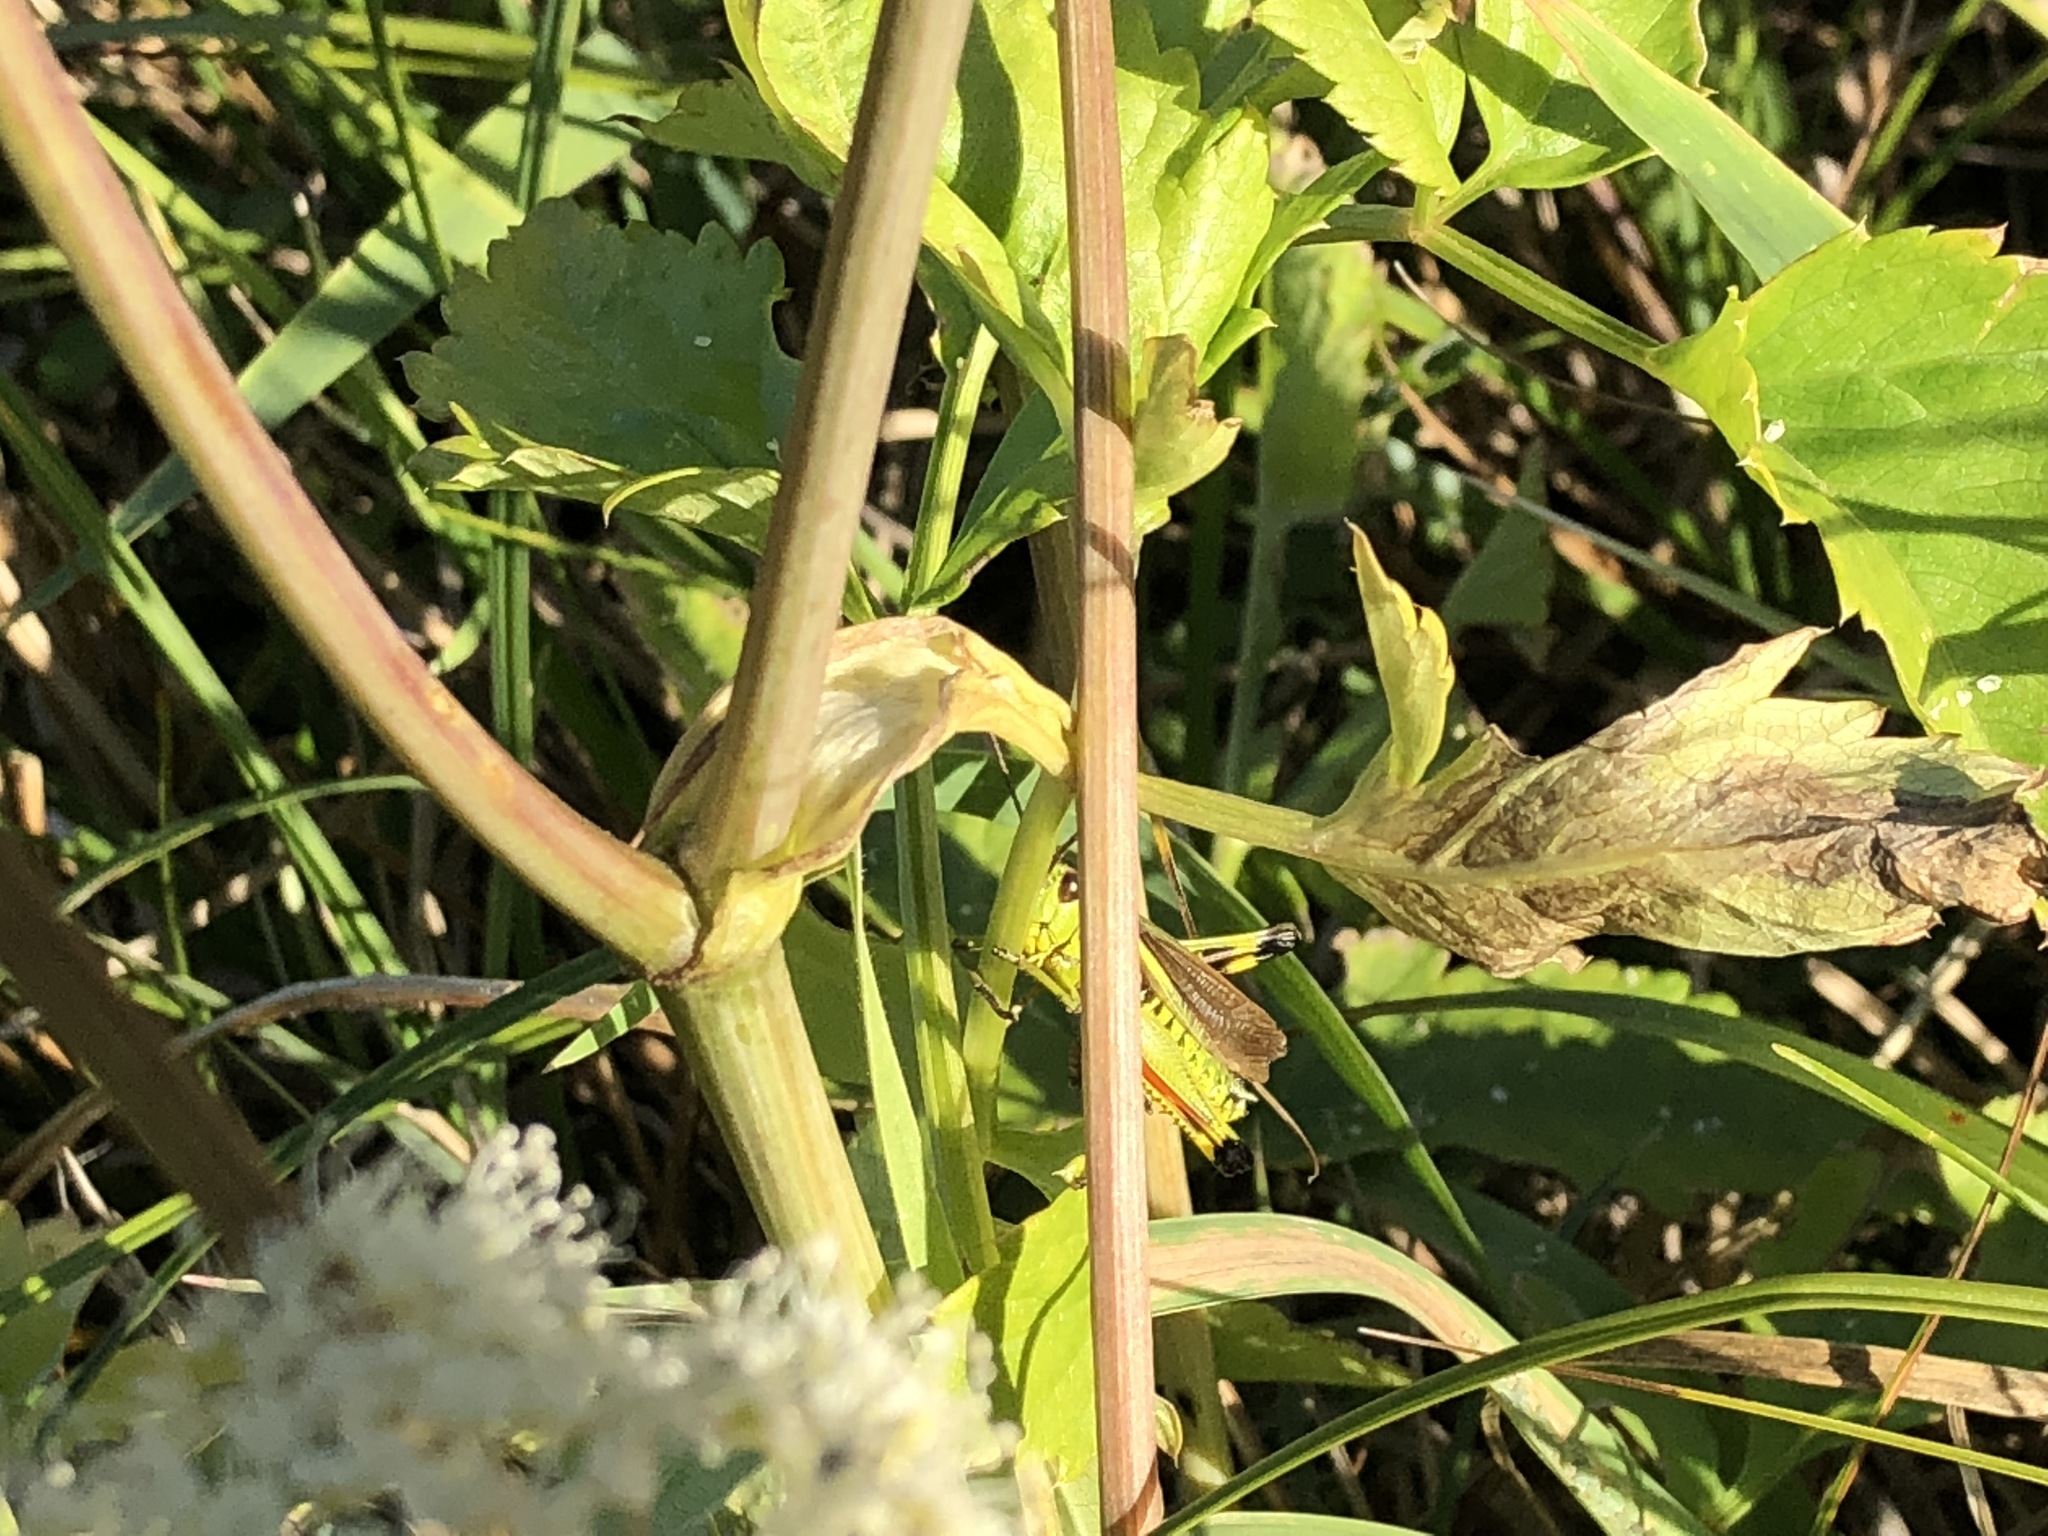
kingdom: Animalia
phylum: Arthropoda
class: Insecta
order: Orthoptera
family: Acrididae
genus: Stethophyma
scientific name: Stethophyma grossum
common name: Large marsh grasshopper
